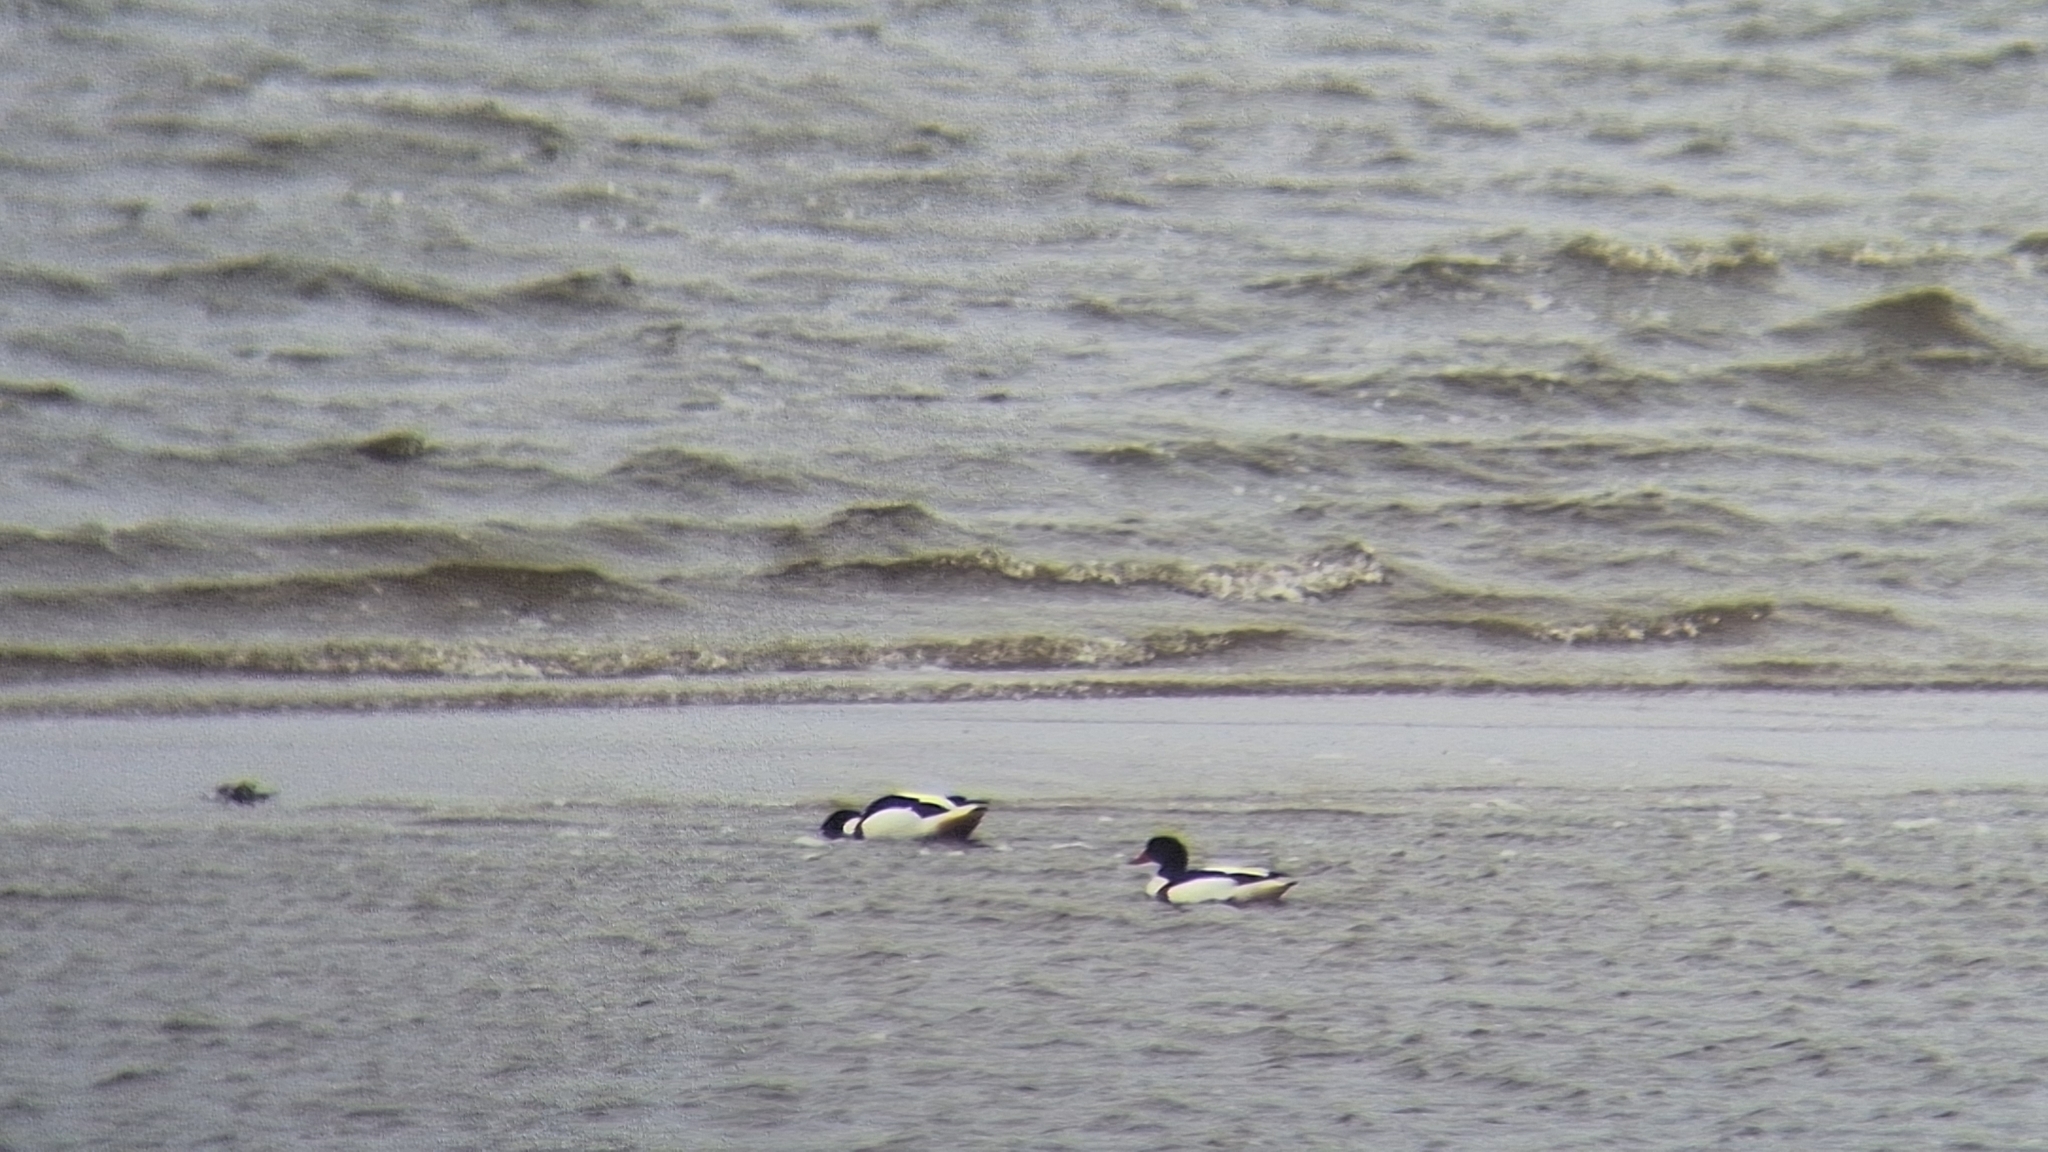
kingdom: Animalia
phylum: Chordata
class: Aves
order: Anseriformes
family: Anatidae
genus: Tadorna
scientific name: Tadorna tadorna
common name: Common shelduck
